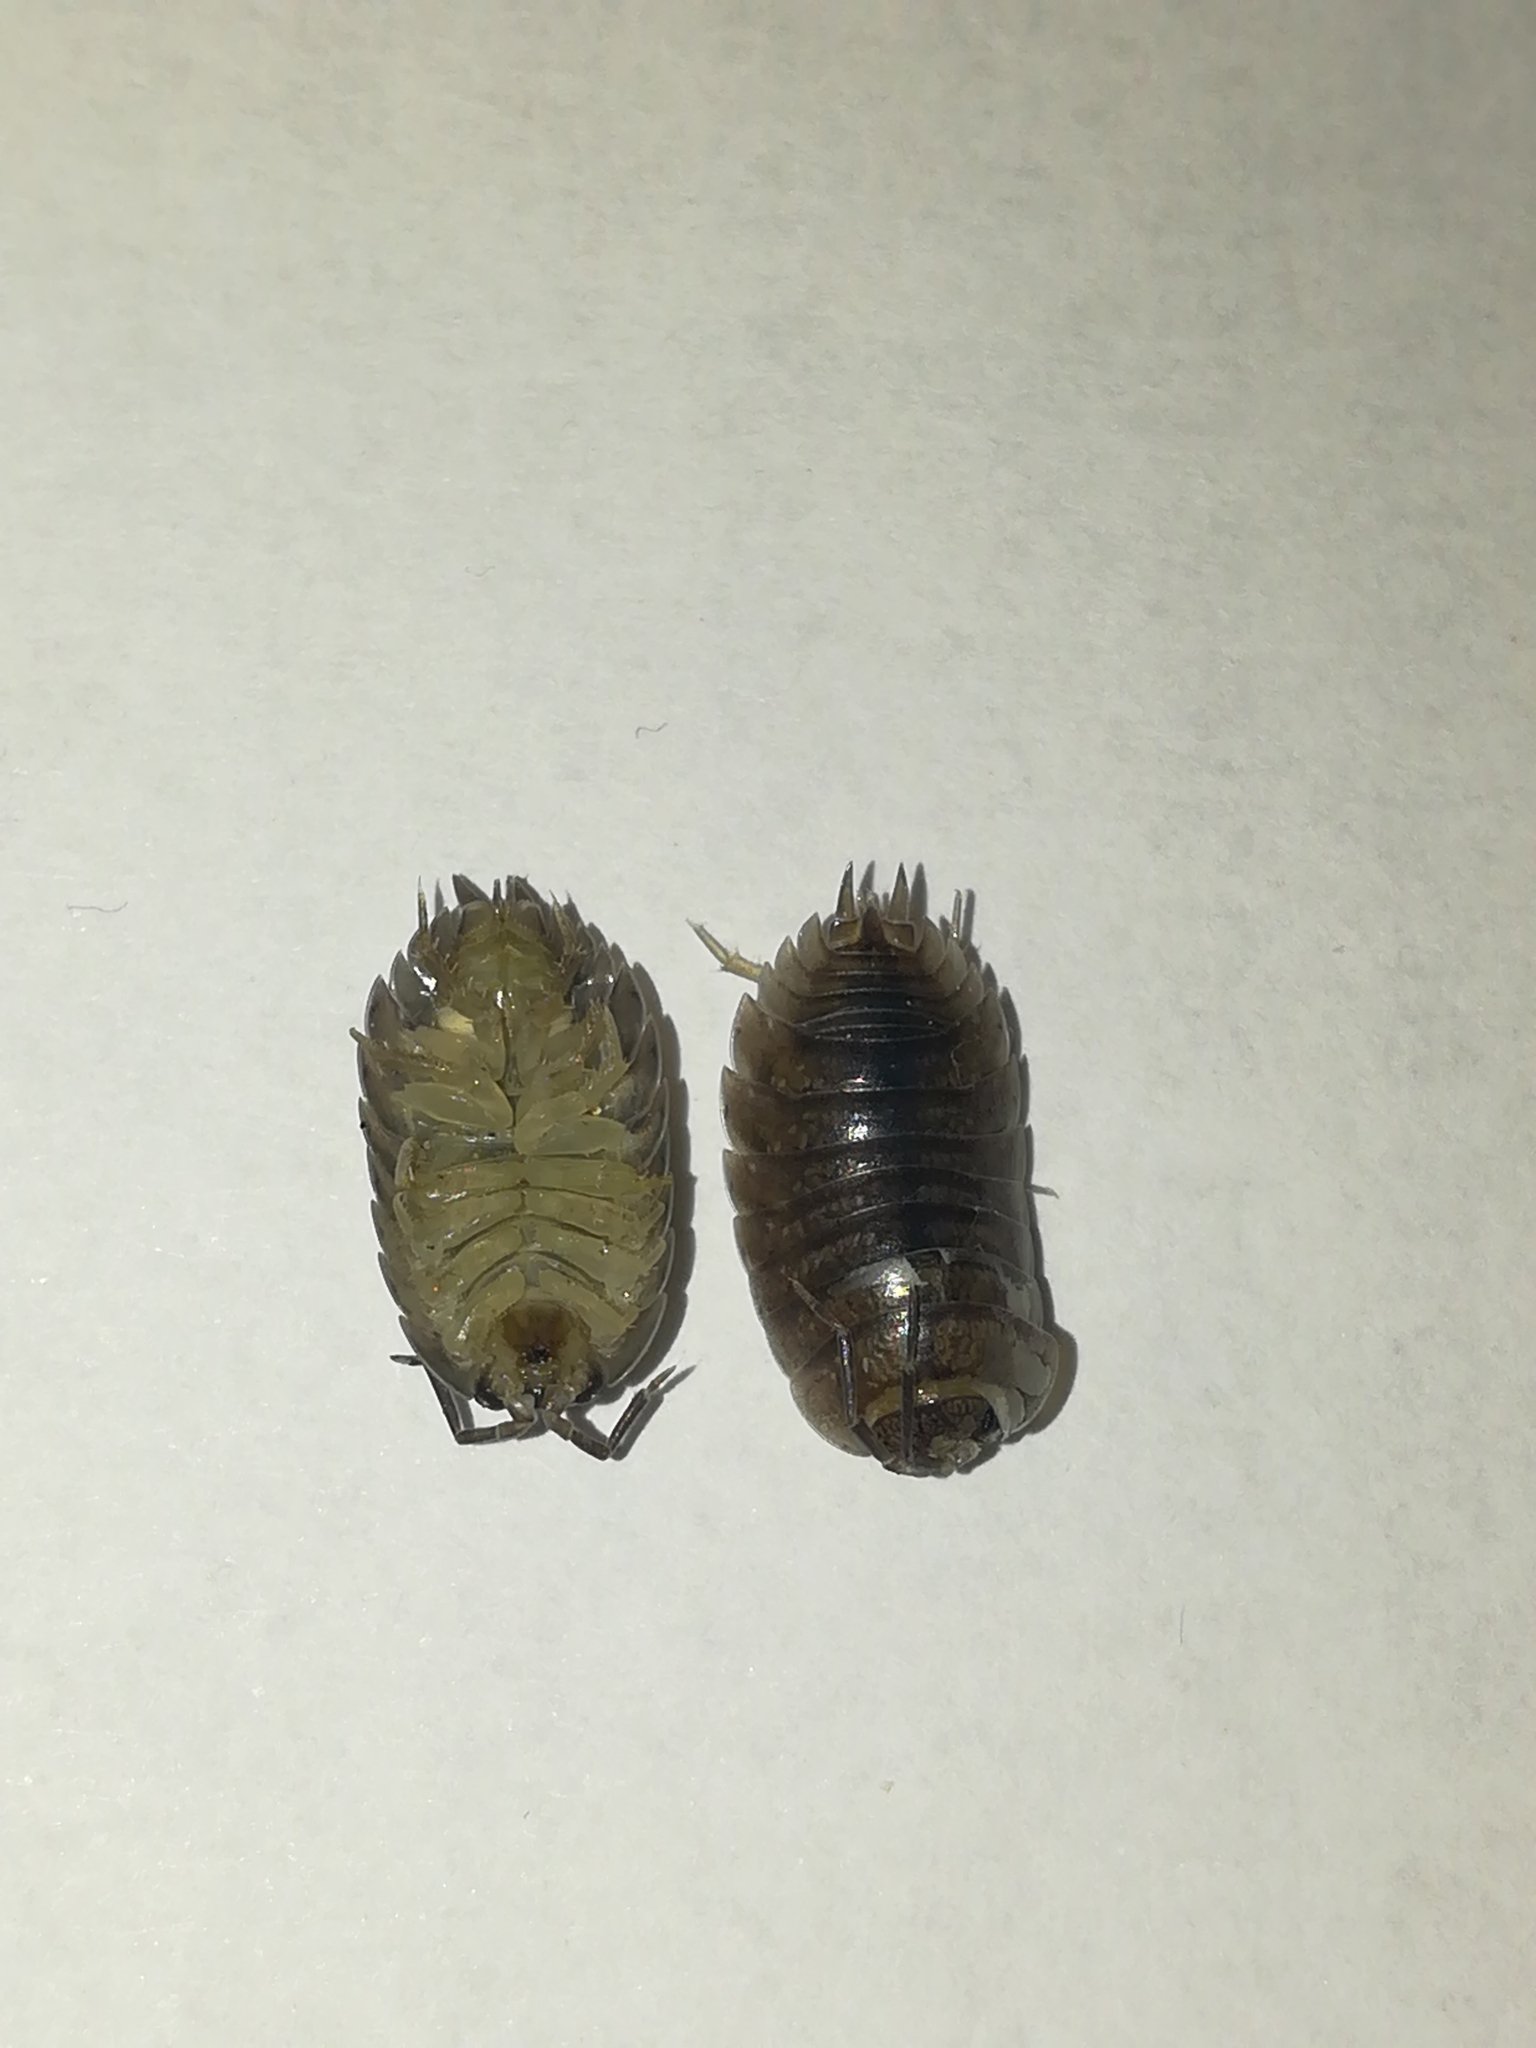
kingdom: Animalia
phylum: Arthropoda
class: Malacostraca
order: Isopoda
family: Porcellionidae
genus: Porcellio
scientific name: Porcellio laevis
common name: Swift woodlouse
